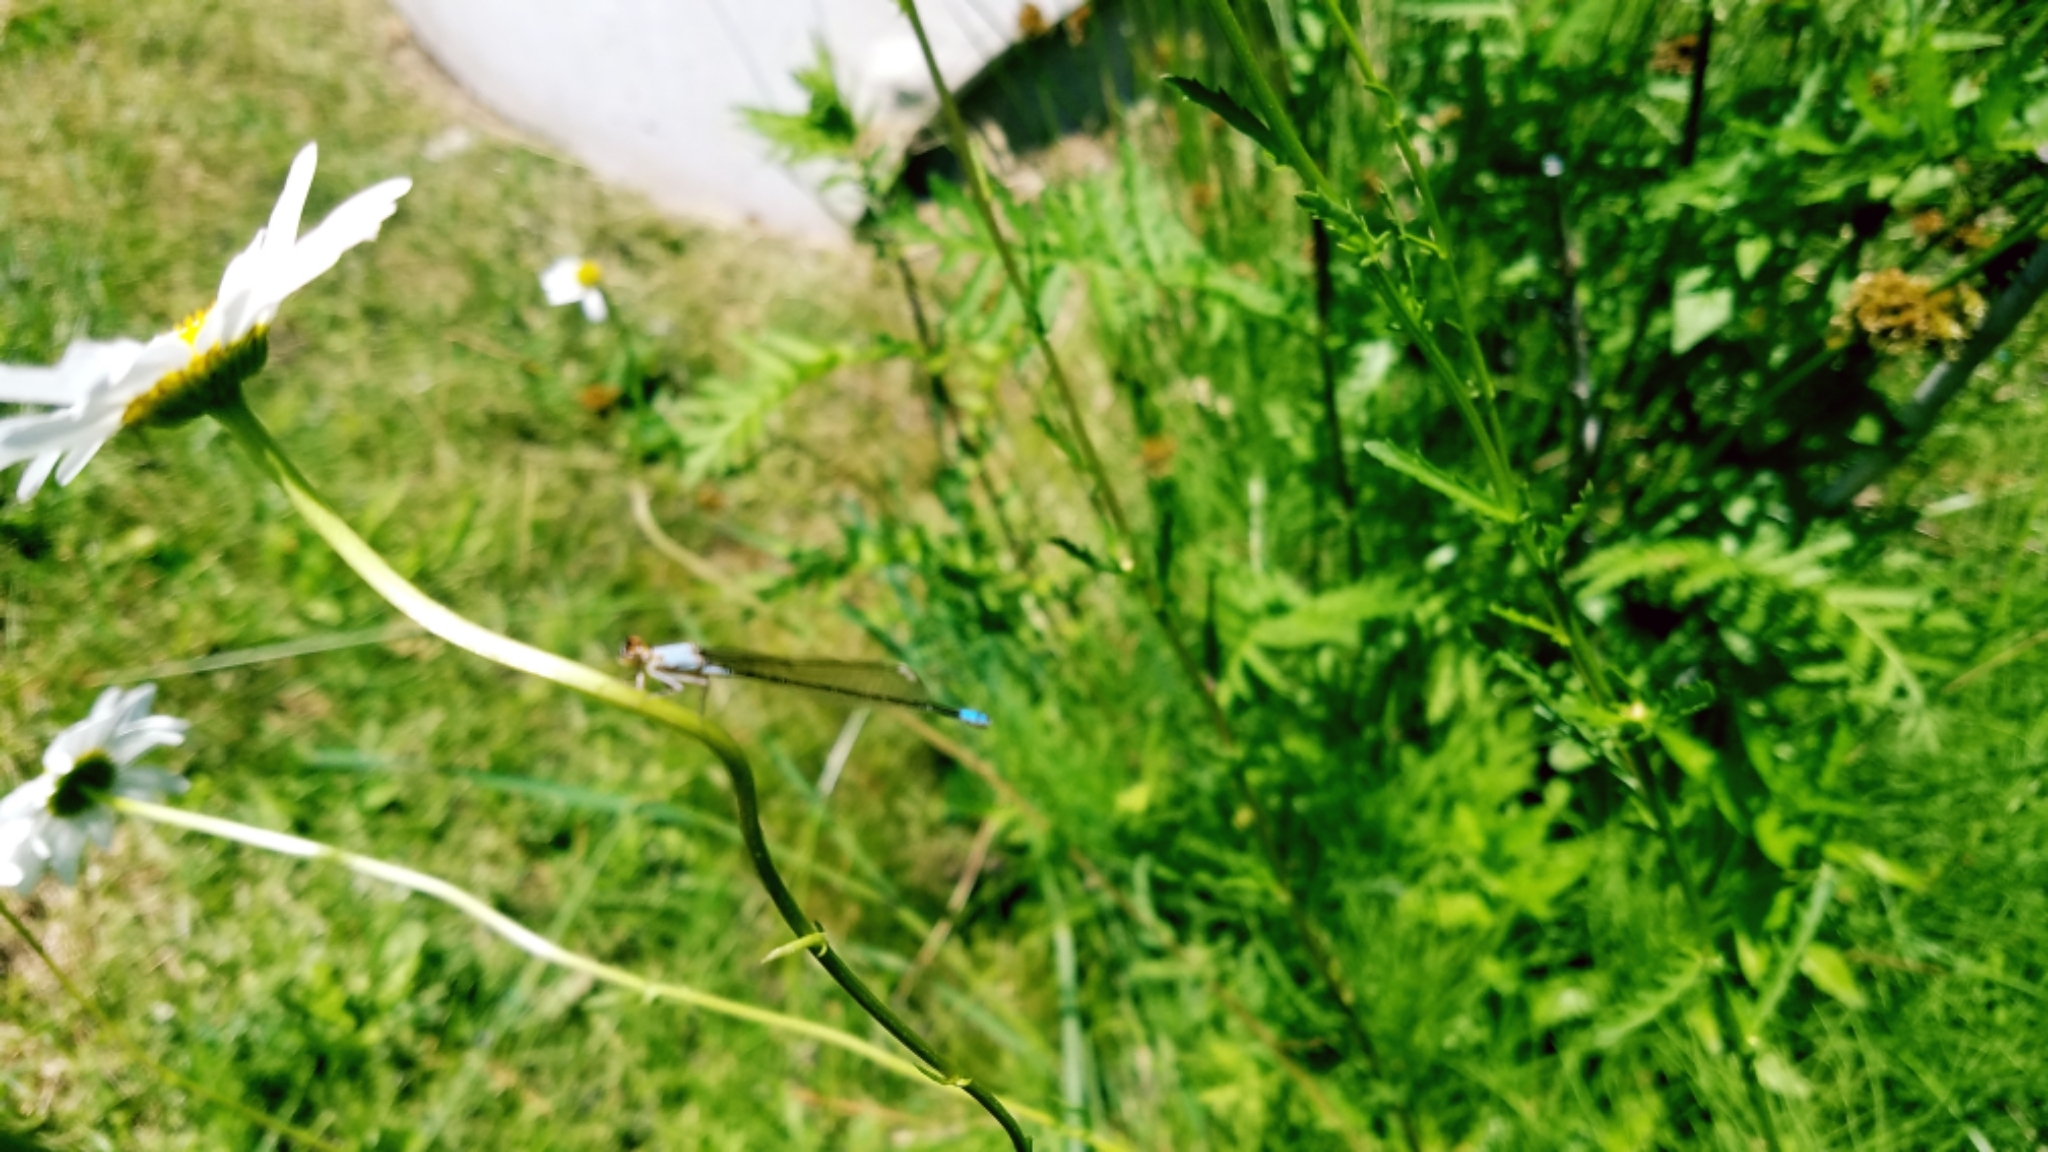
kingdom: Animalia
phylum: Arthropoda
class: Insecta
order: Odonata
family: Coenagrionidae
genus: Ischnura
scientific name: Ischnura cervula
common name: Pacific forktail
